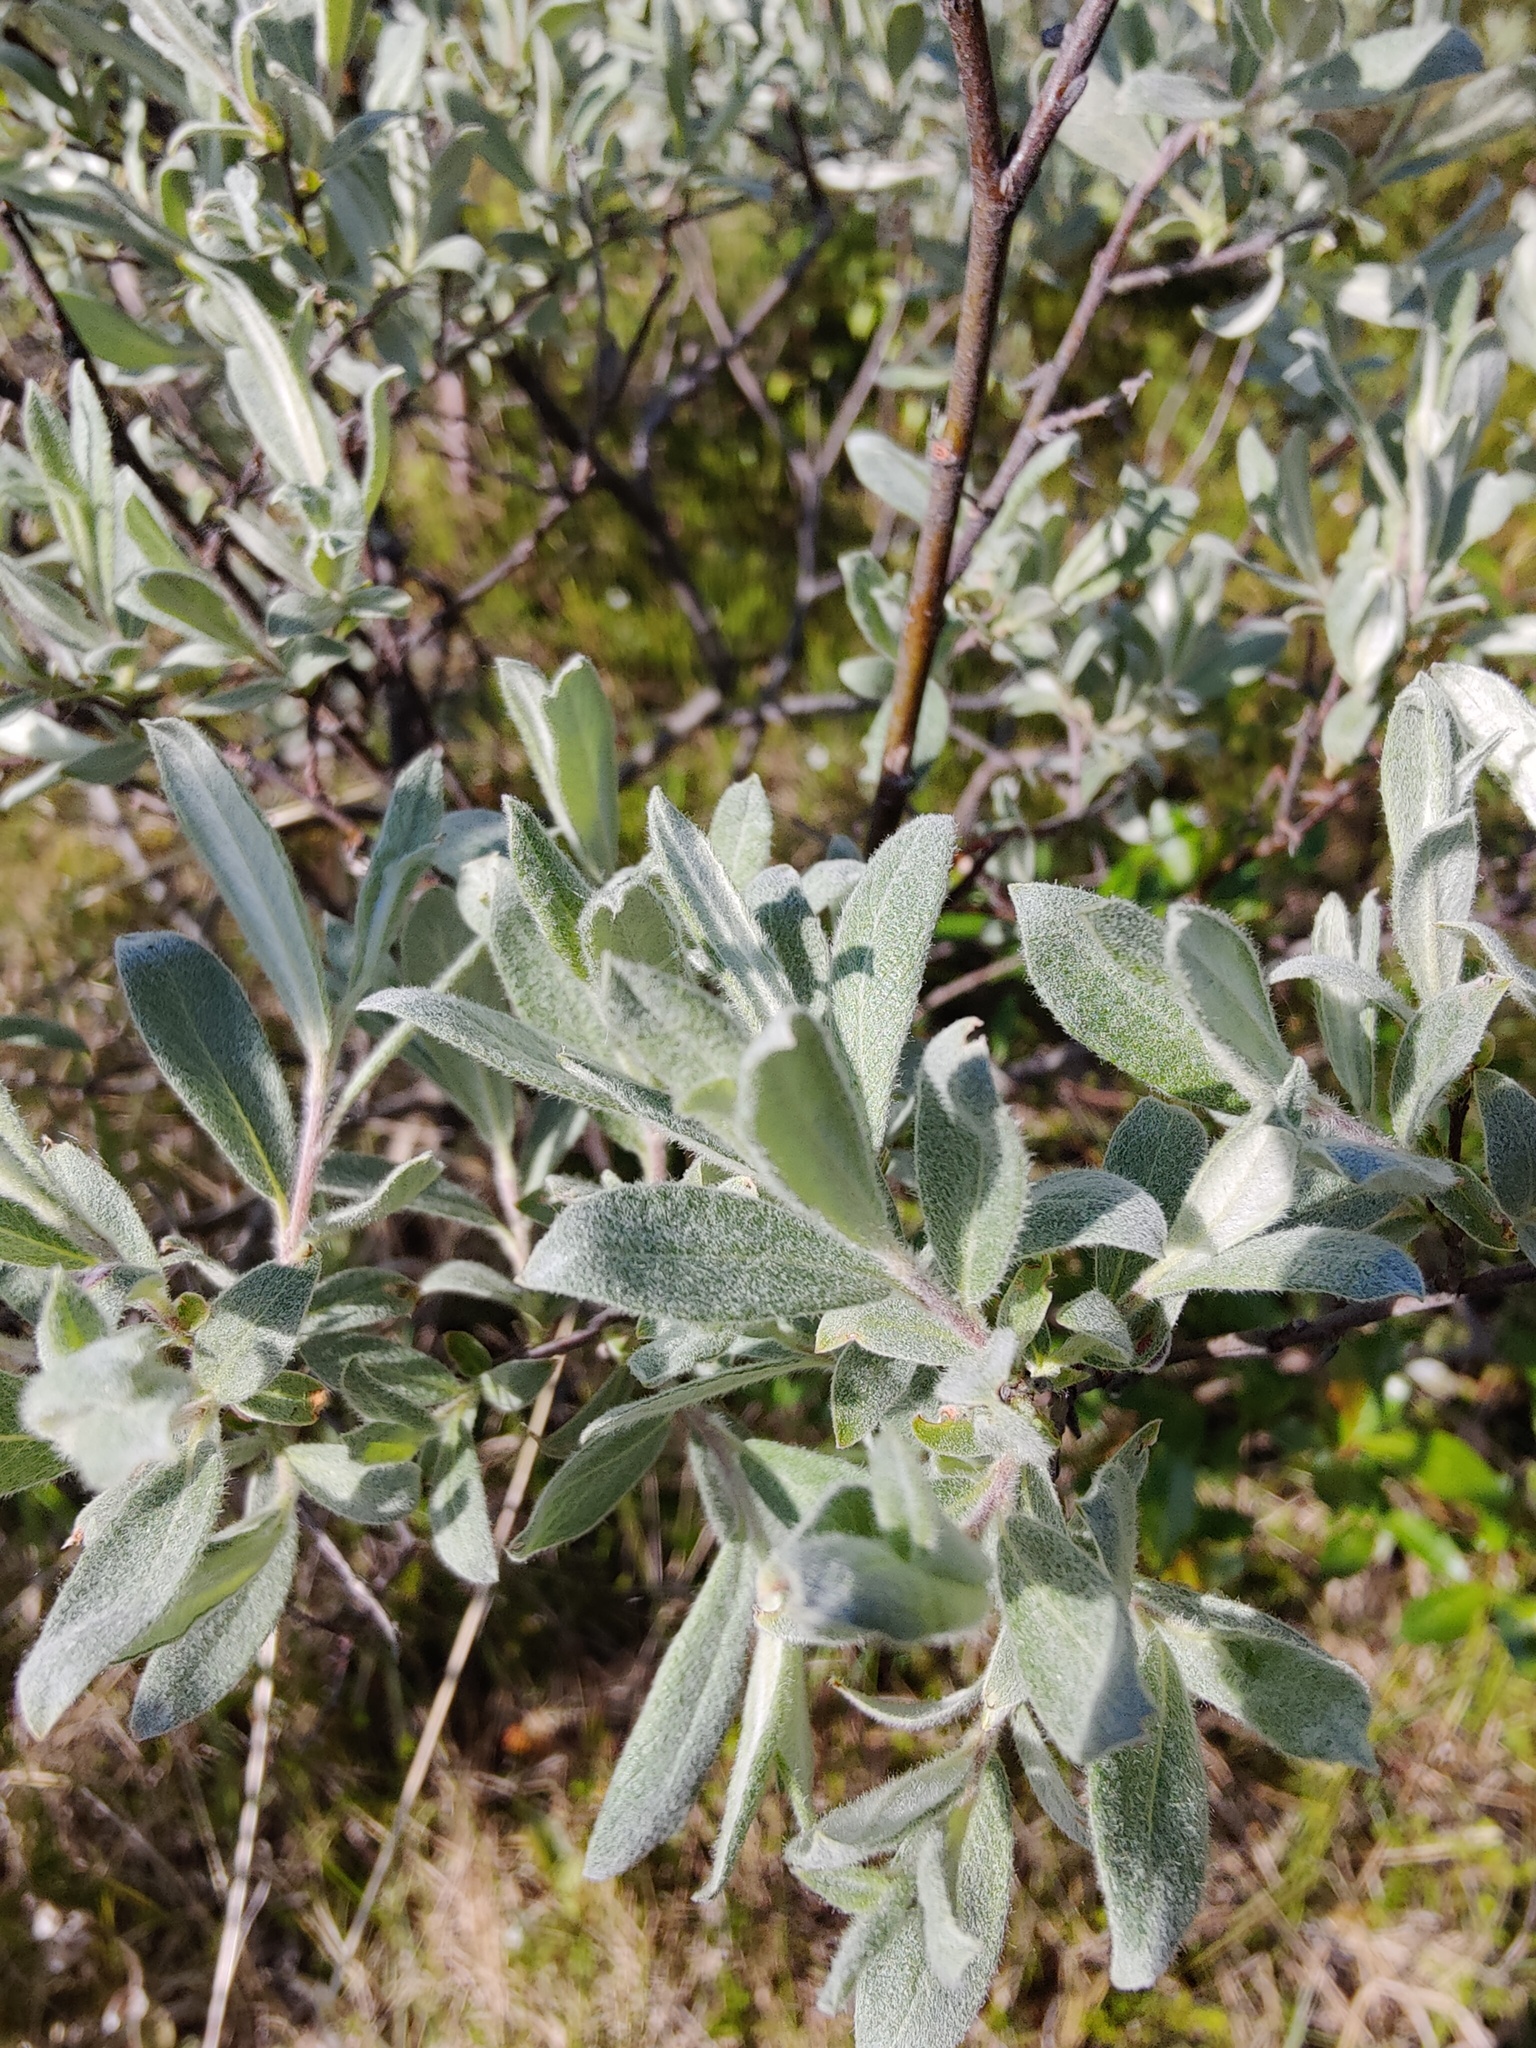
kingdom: Plantae
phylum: Tracheophyta
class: Magnoliopsida
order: Malpighiales
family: Salicaceae
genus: Salix
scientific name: Salix lapponum
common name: Downy willow
